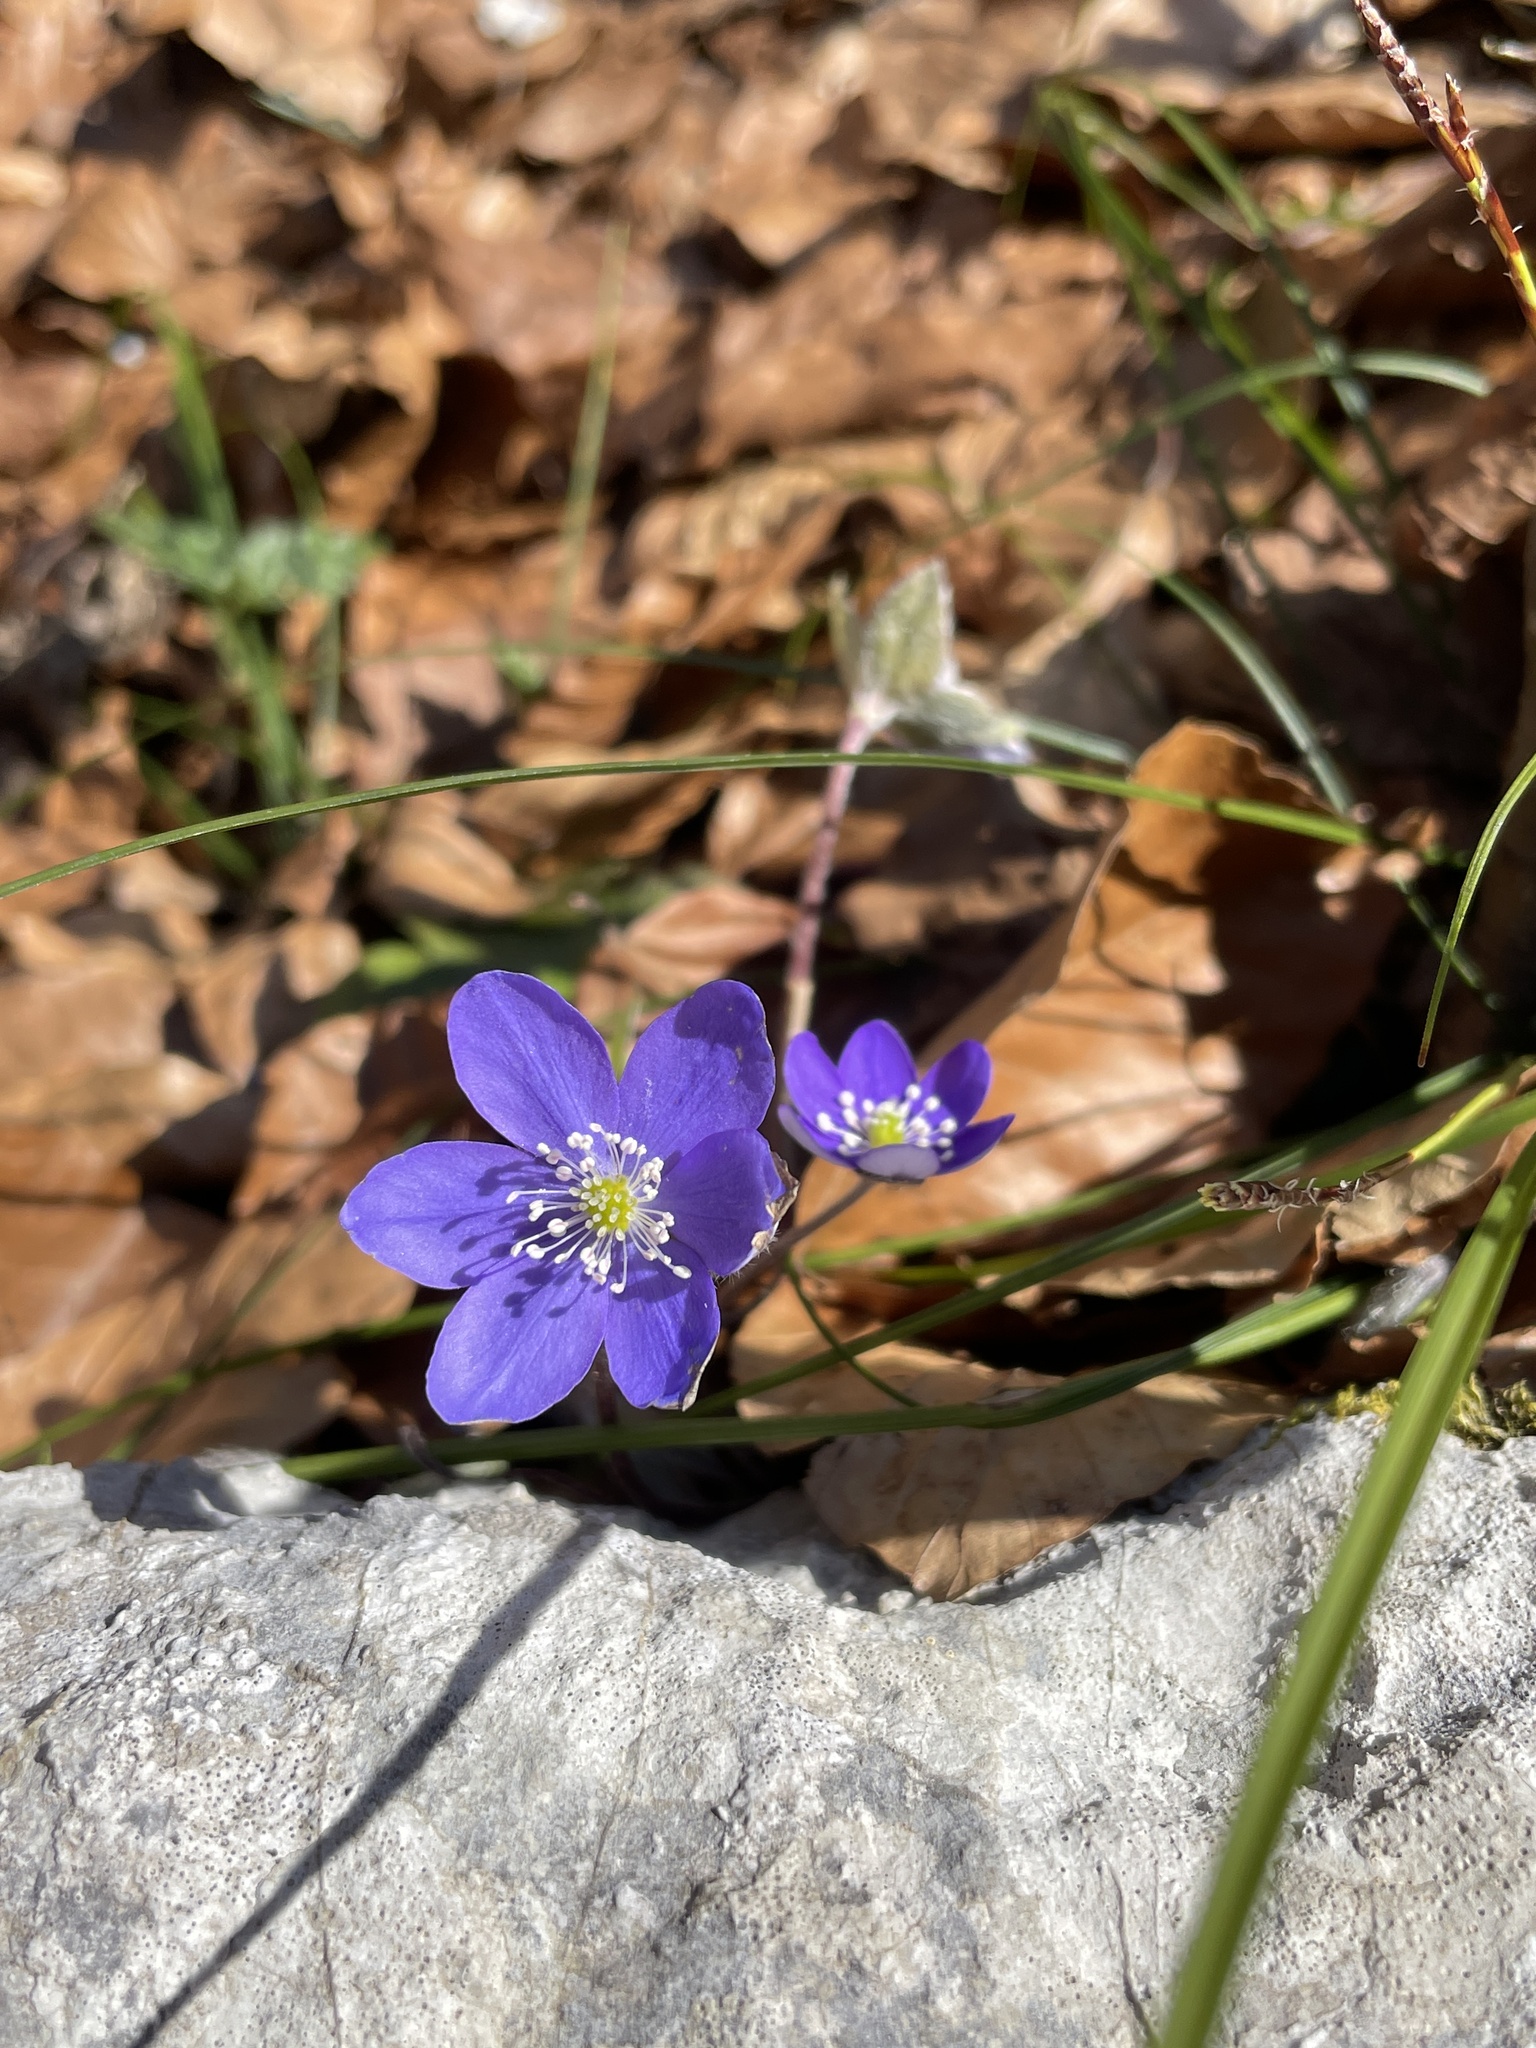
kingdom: Plantae
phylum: Tracheophyta
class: Magnoliopsida
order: Ranunculales
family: Ranunculaceae
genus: Hepatica
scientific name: Hepatica nobilis
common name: Liverleaf
